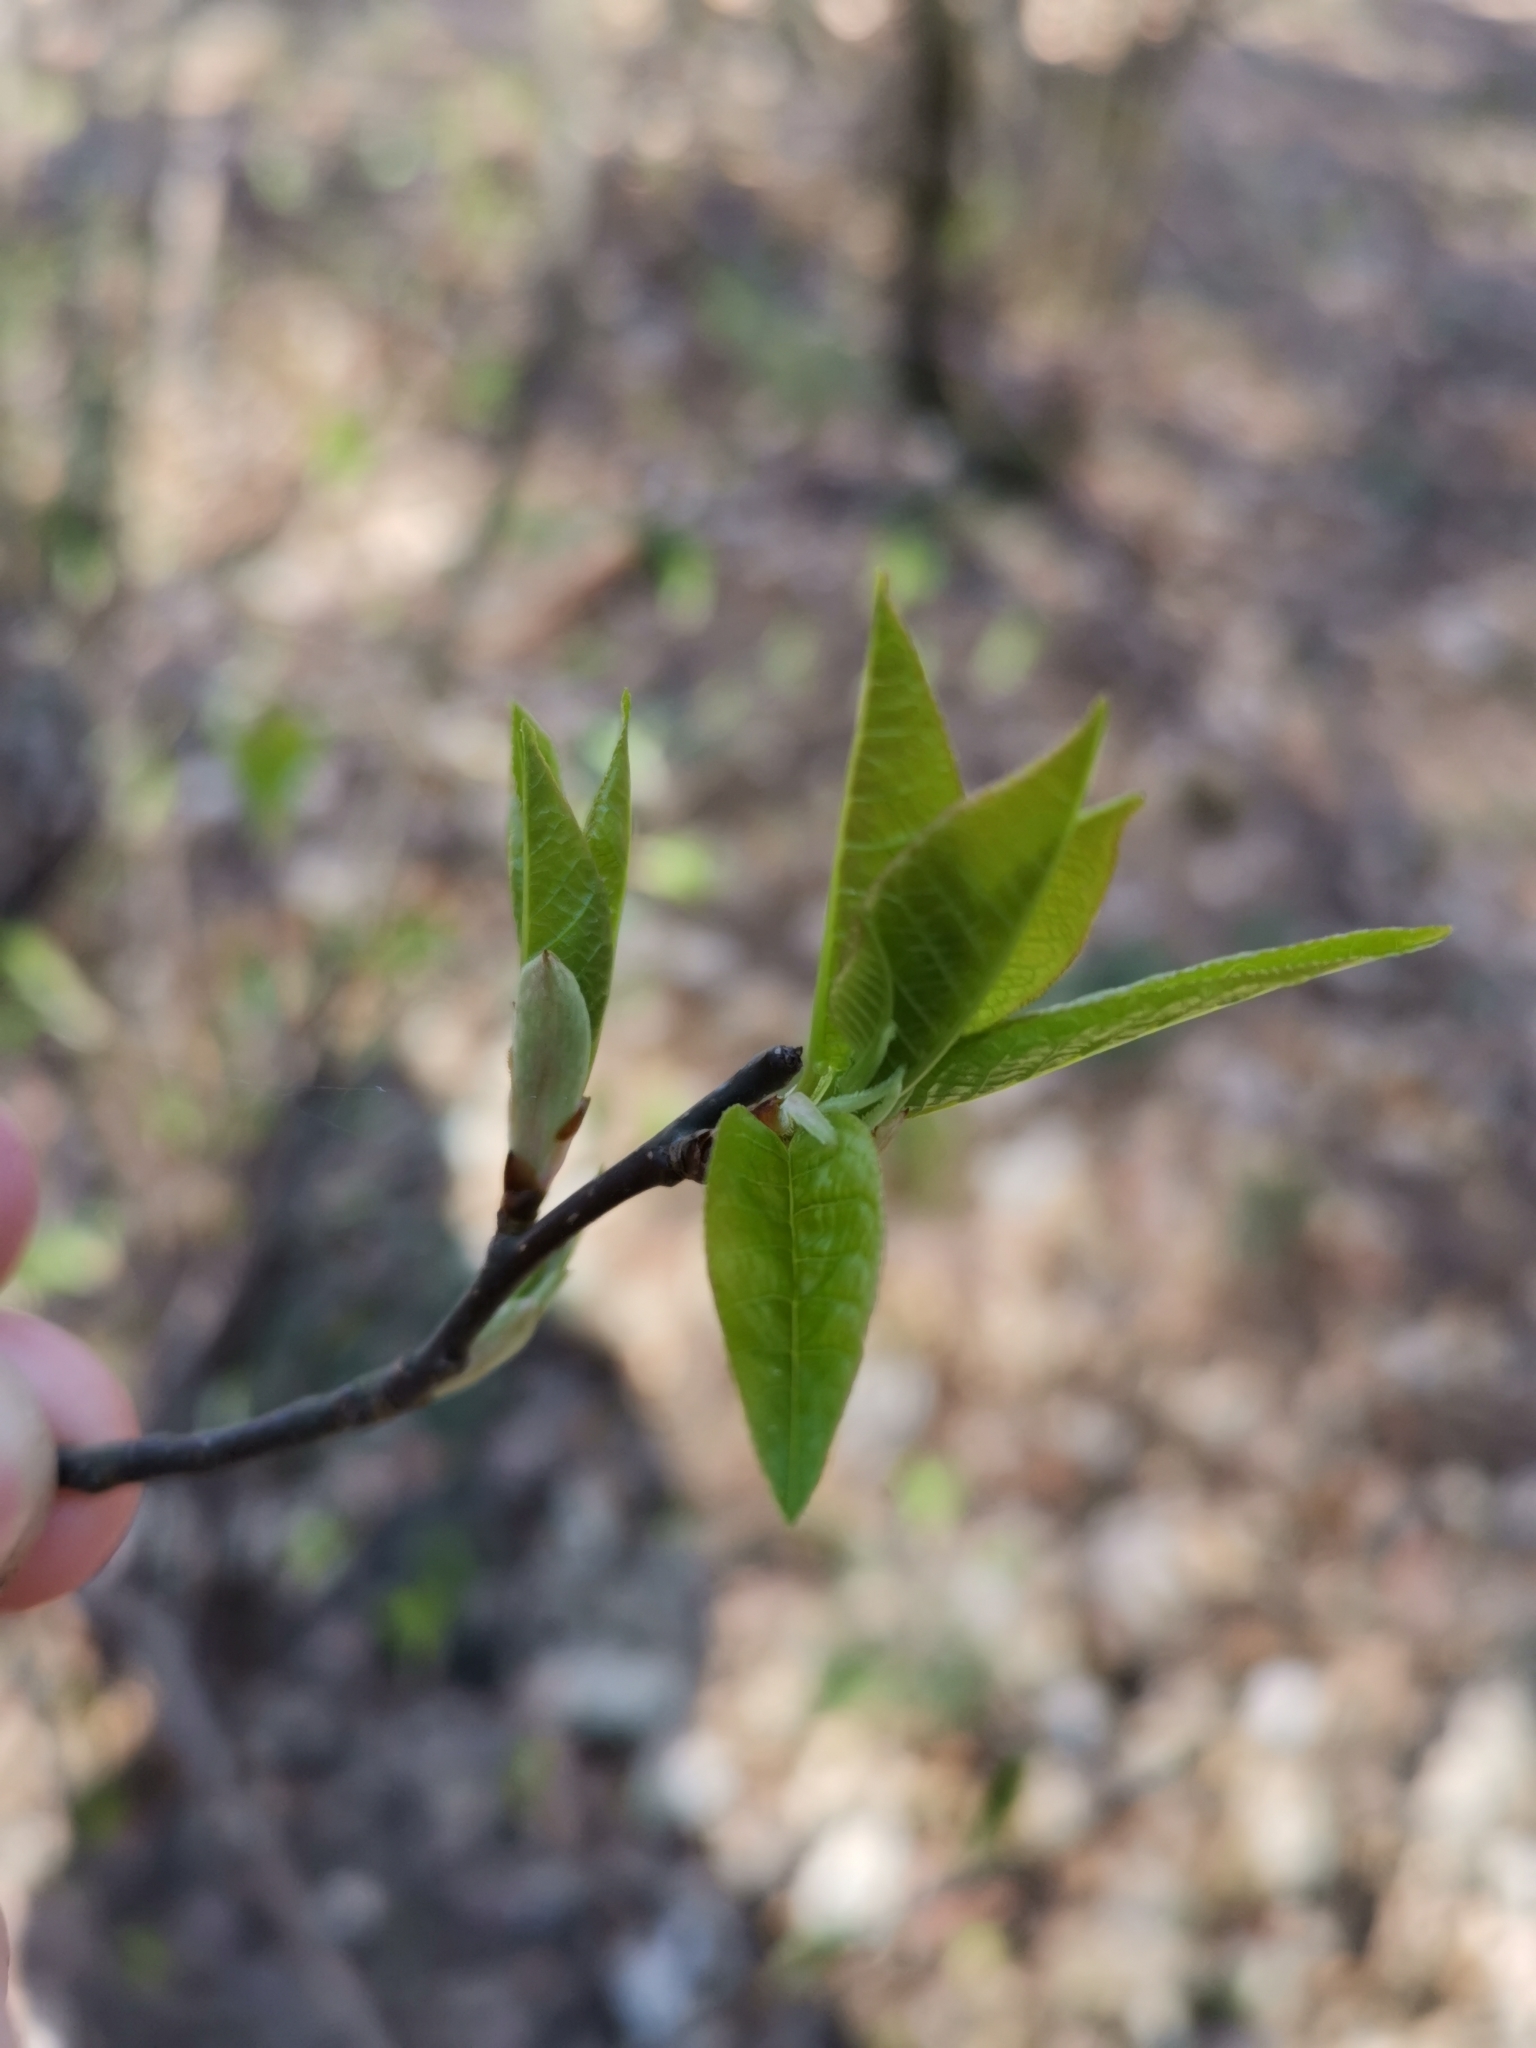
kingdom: Plantae
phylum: Tracheophyta
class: Magnoliopsida
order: Rosales
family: Rosaceae
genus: Prunus
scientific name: Prunus padus
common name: Bird cherry
